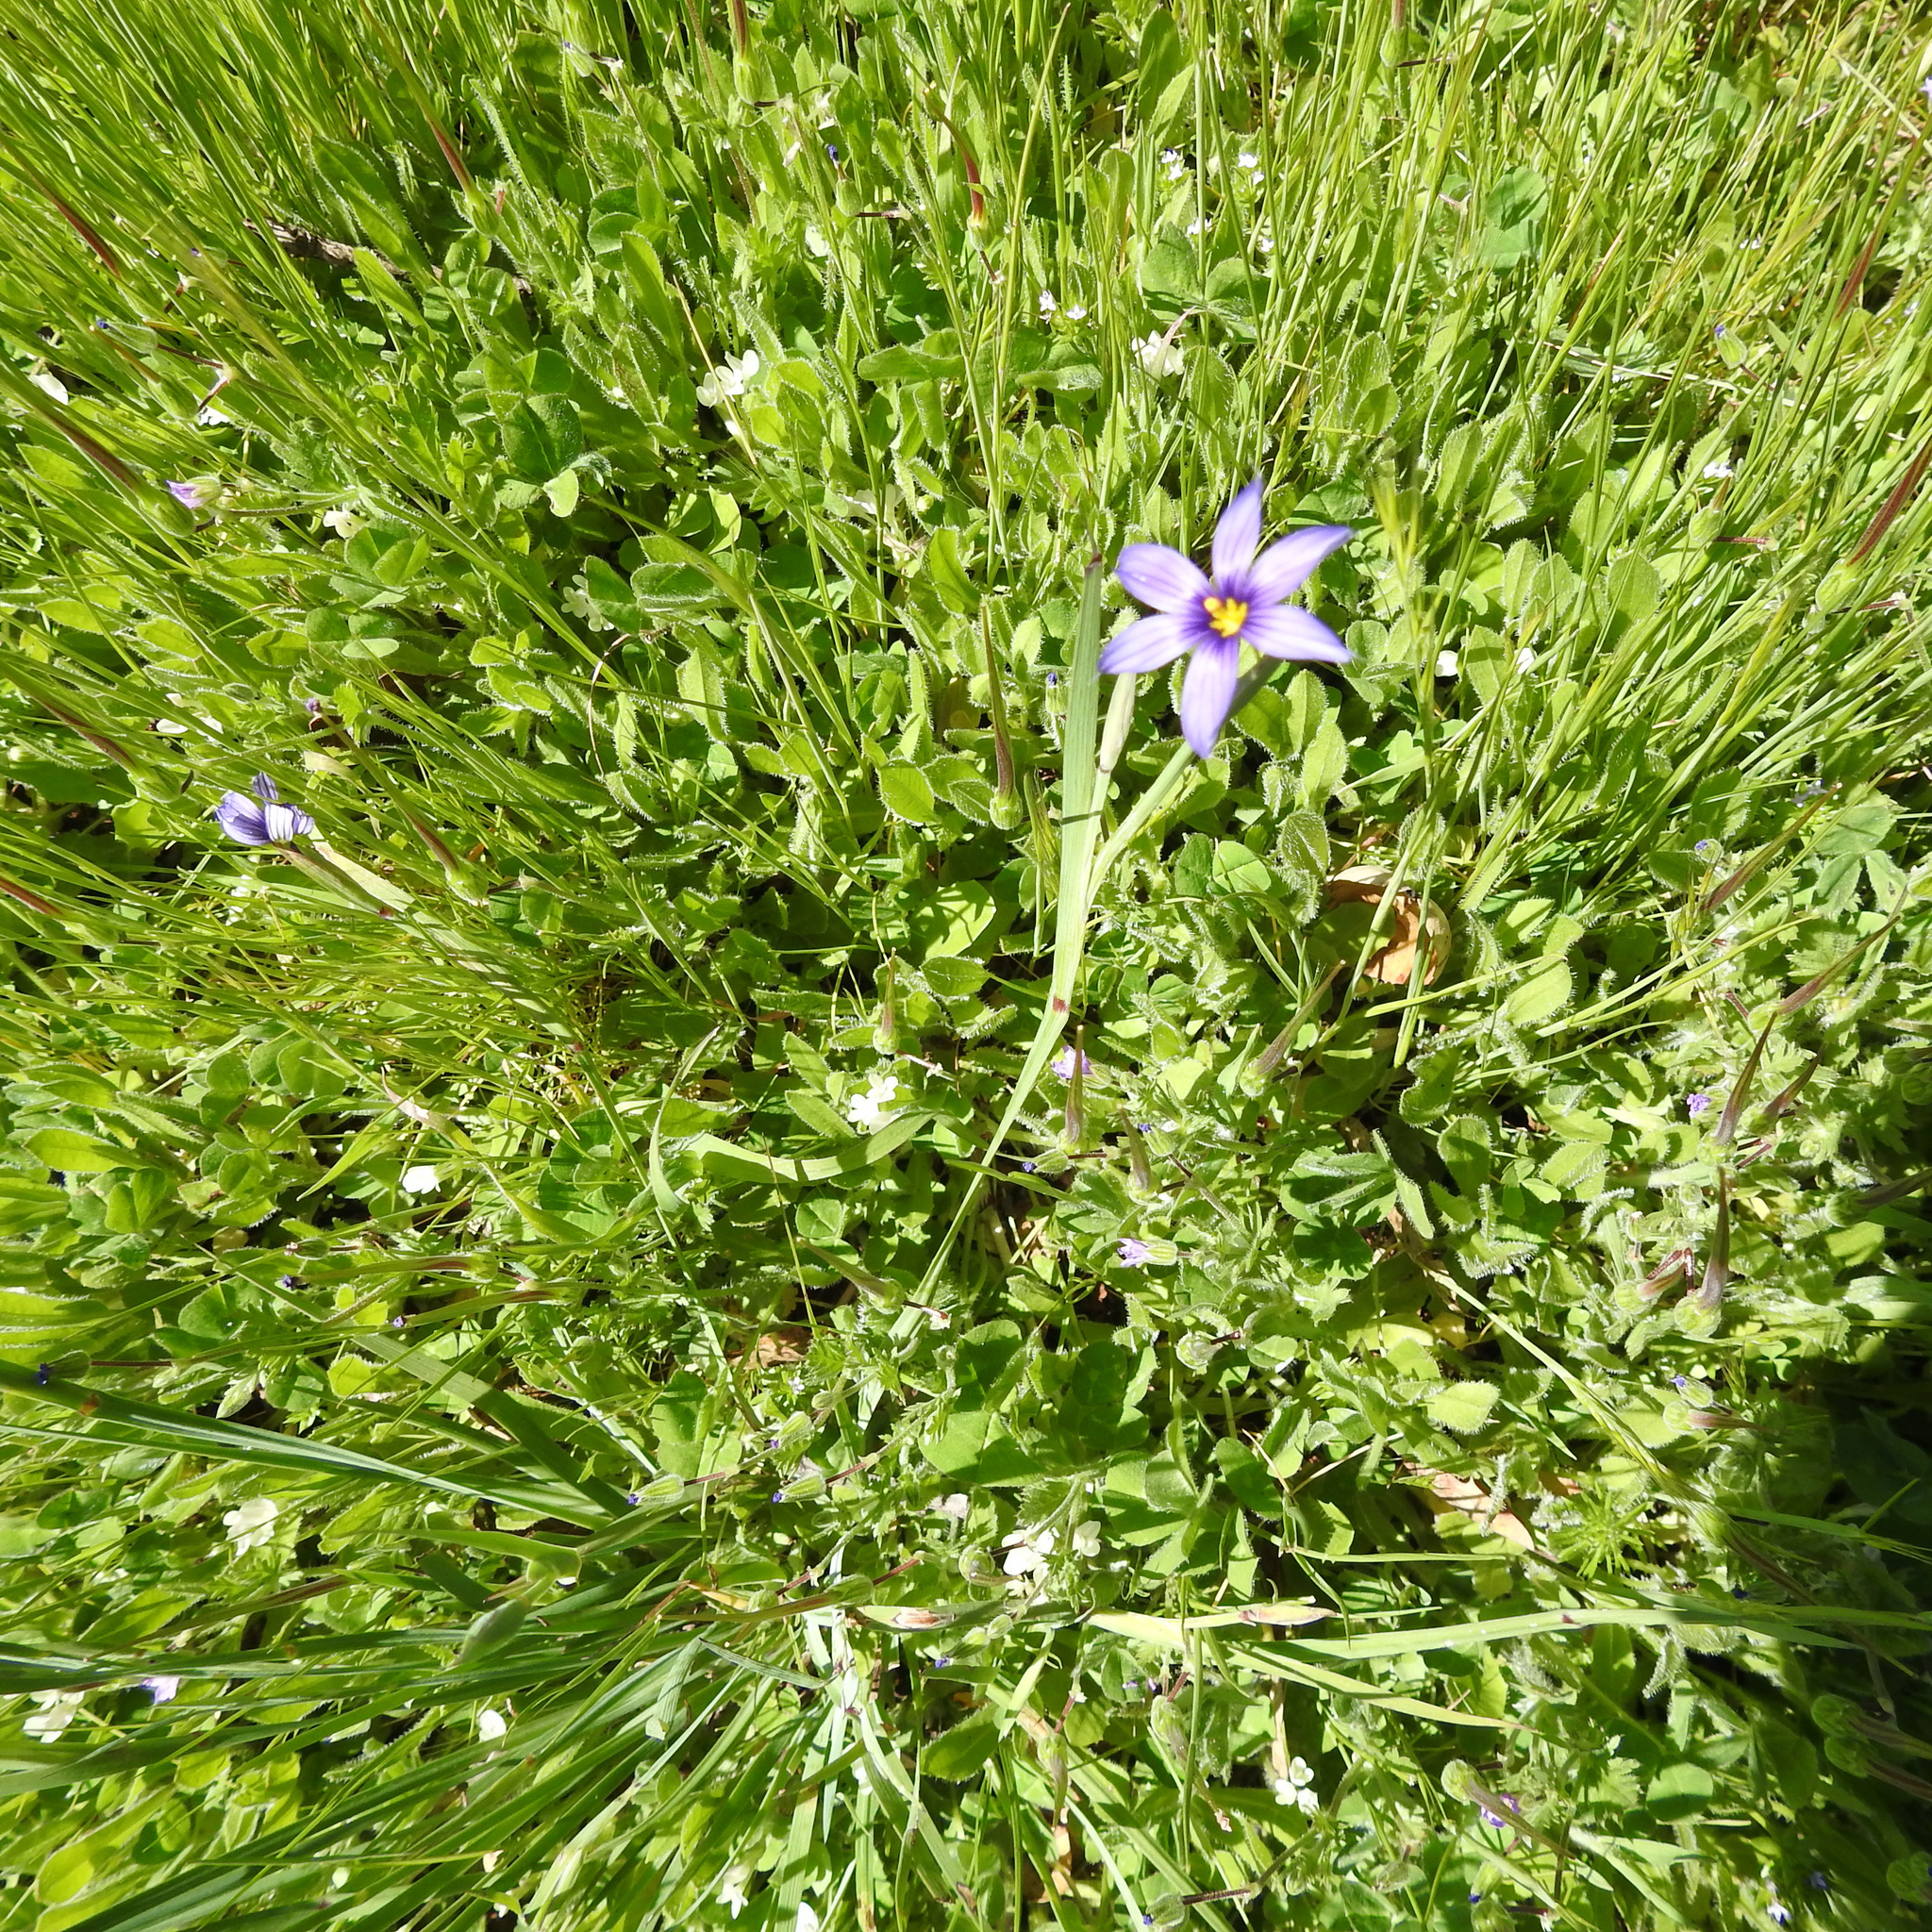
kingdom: Plantae
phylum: Tracheophyta
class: Liliopsida
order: Asparagales
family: Iridaceae
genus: Sisyrinchium
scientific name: Sisyrinchium bellum
